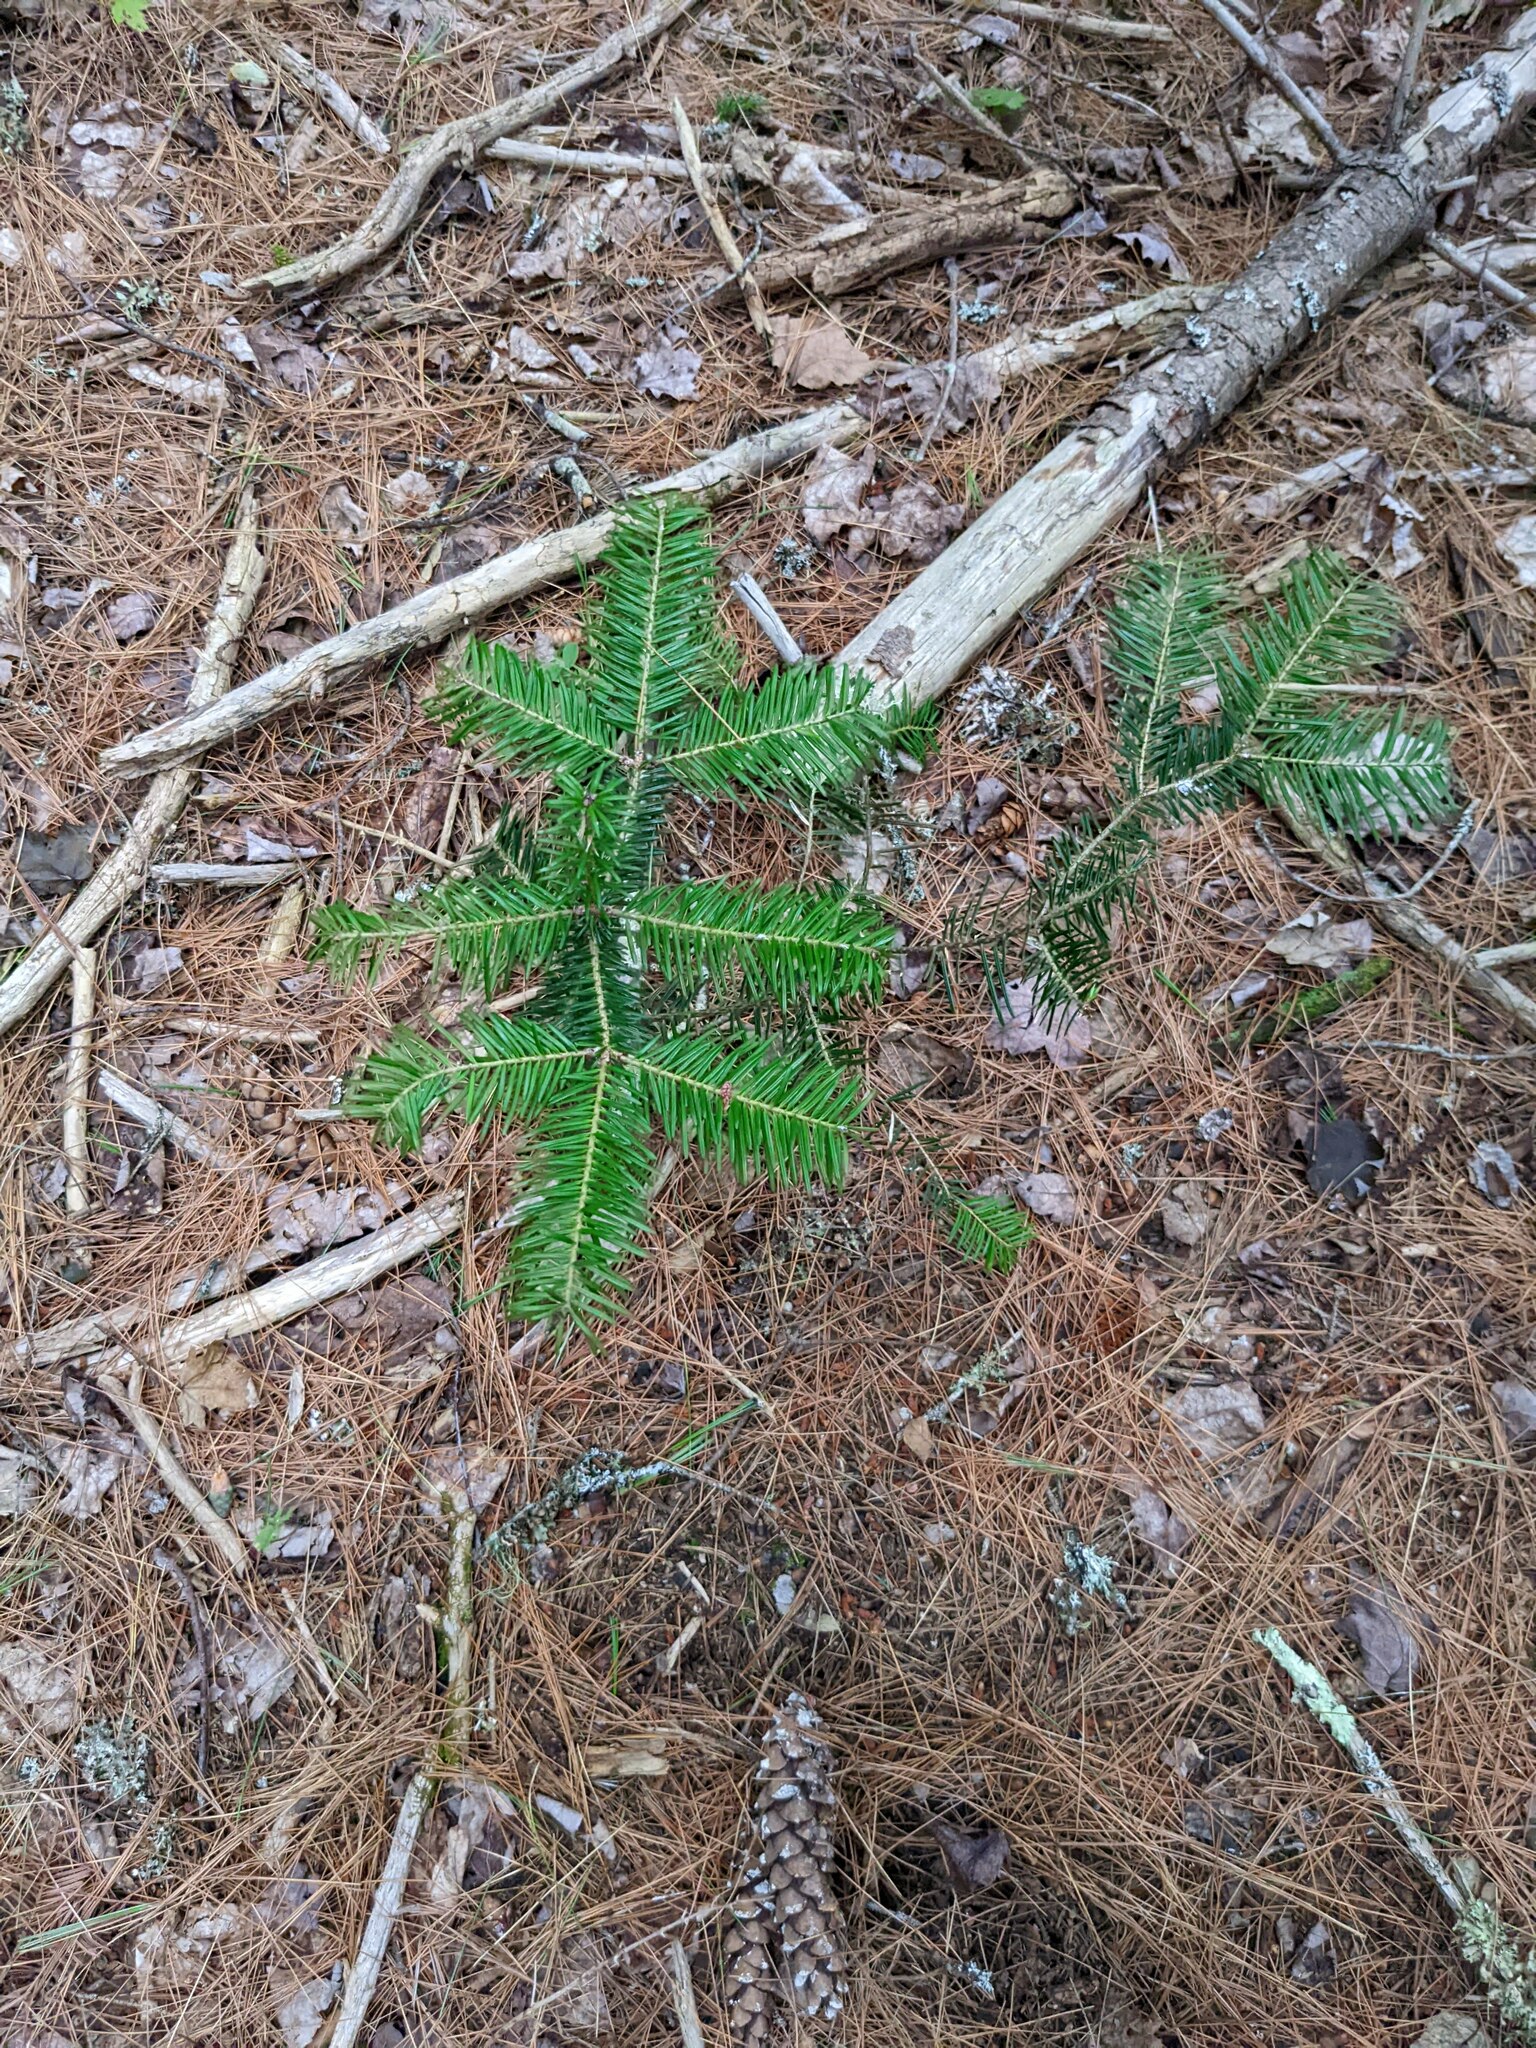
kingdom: Plantae
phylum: Tracheophyta
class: Pinopsida
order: Pinales
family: Pinaceae
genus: Abies
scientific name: Abies balsamea
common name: Balsam fir
